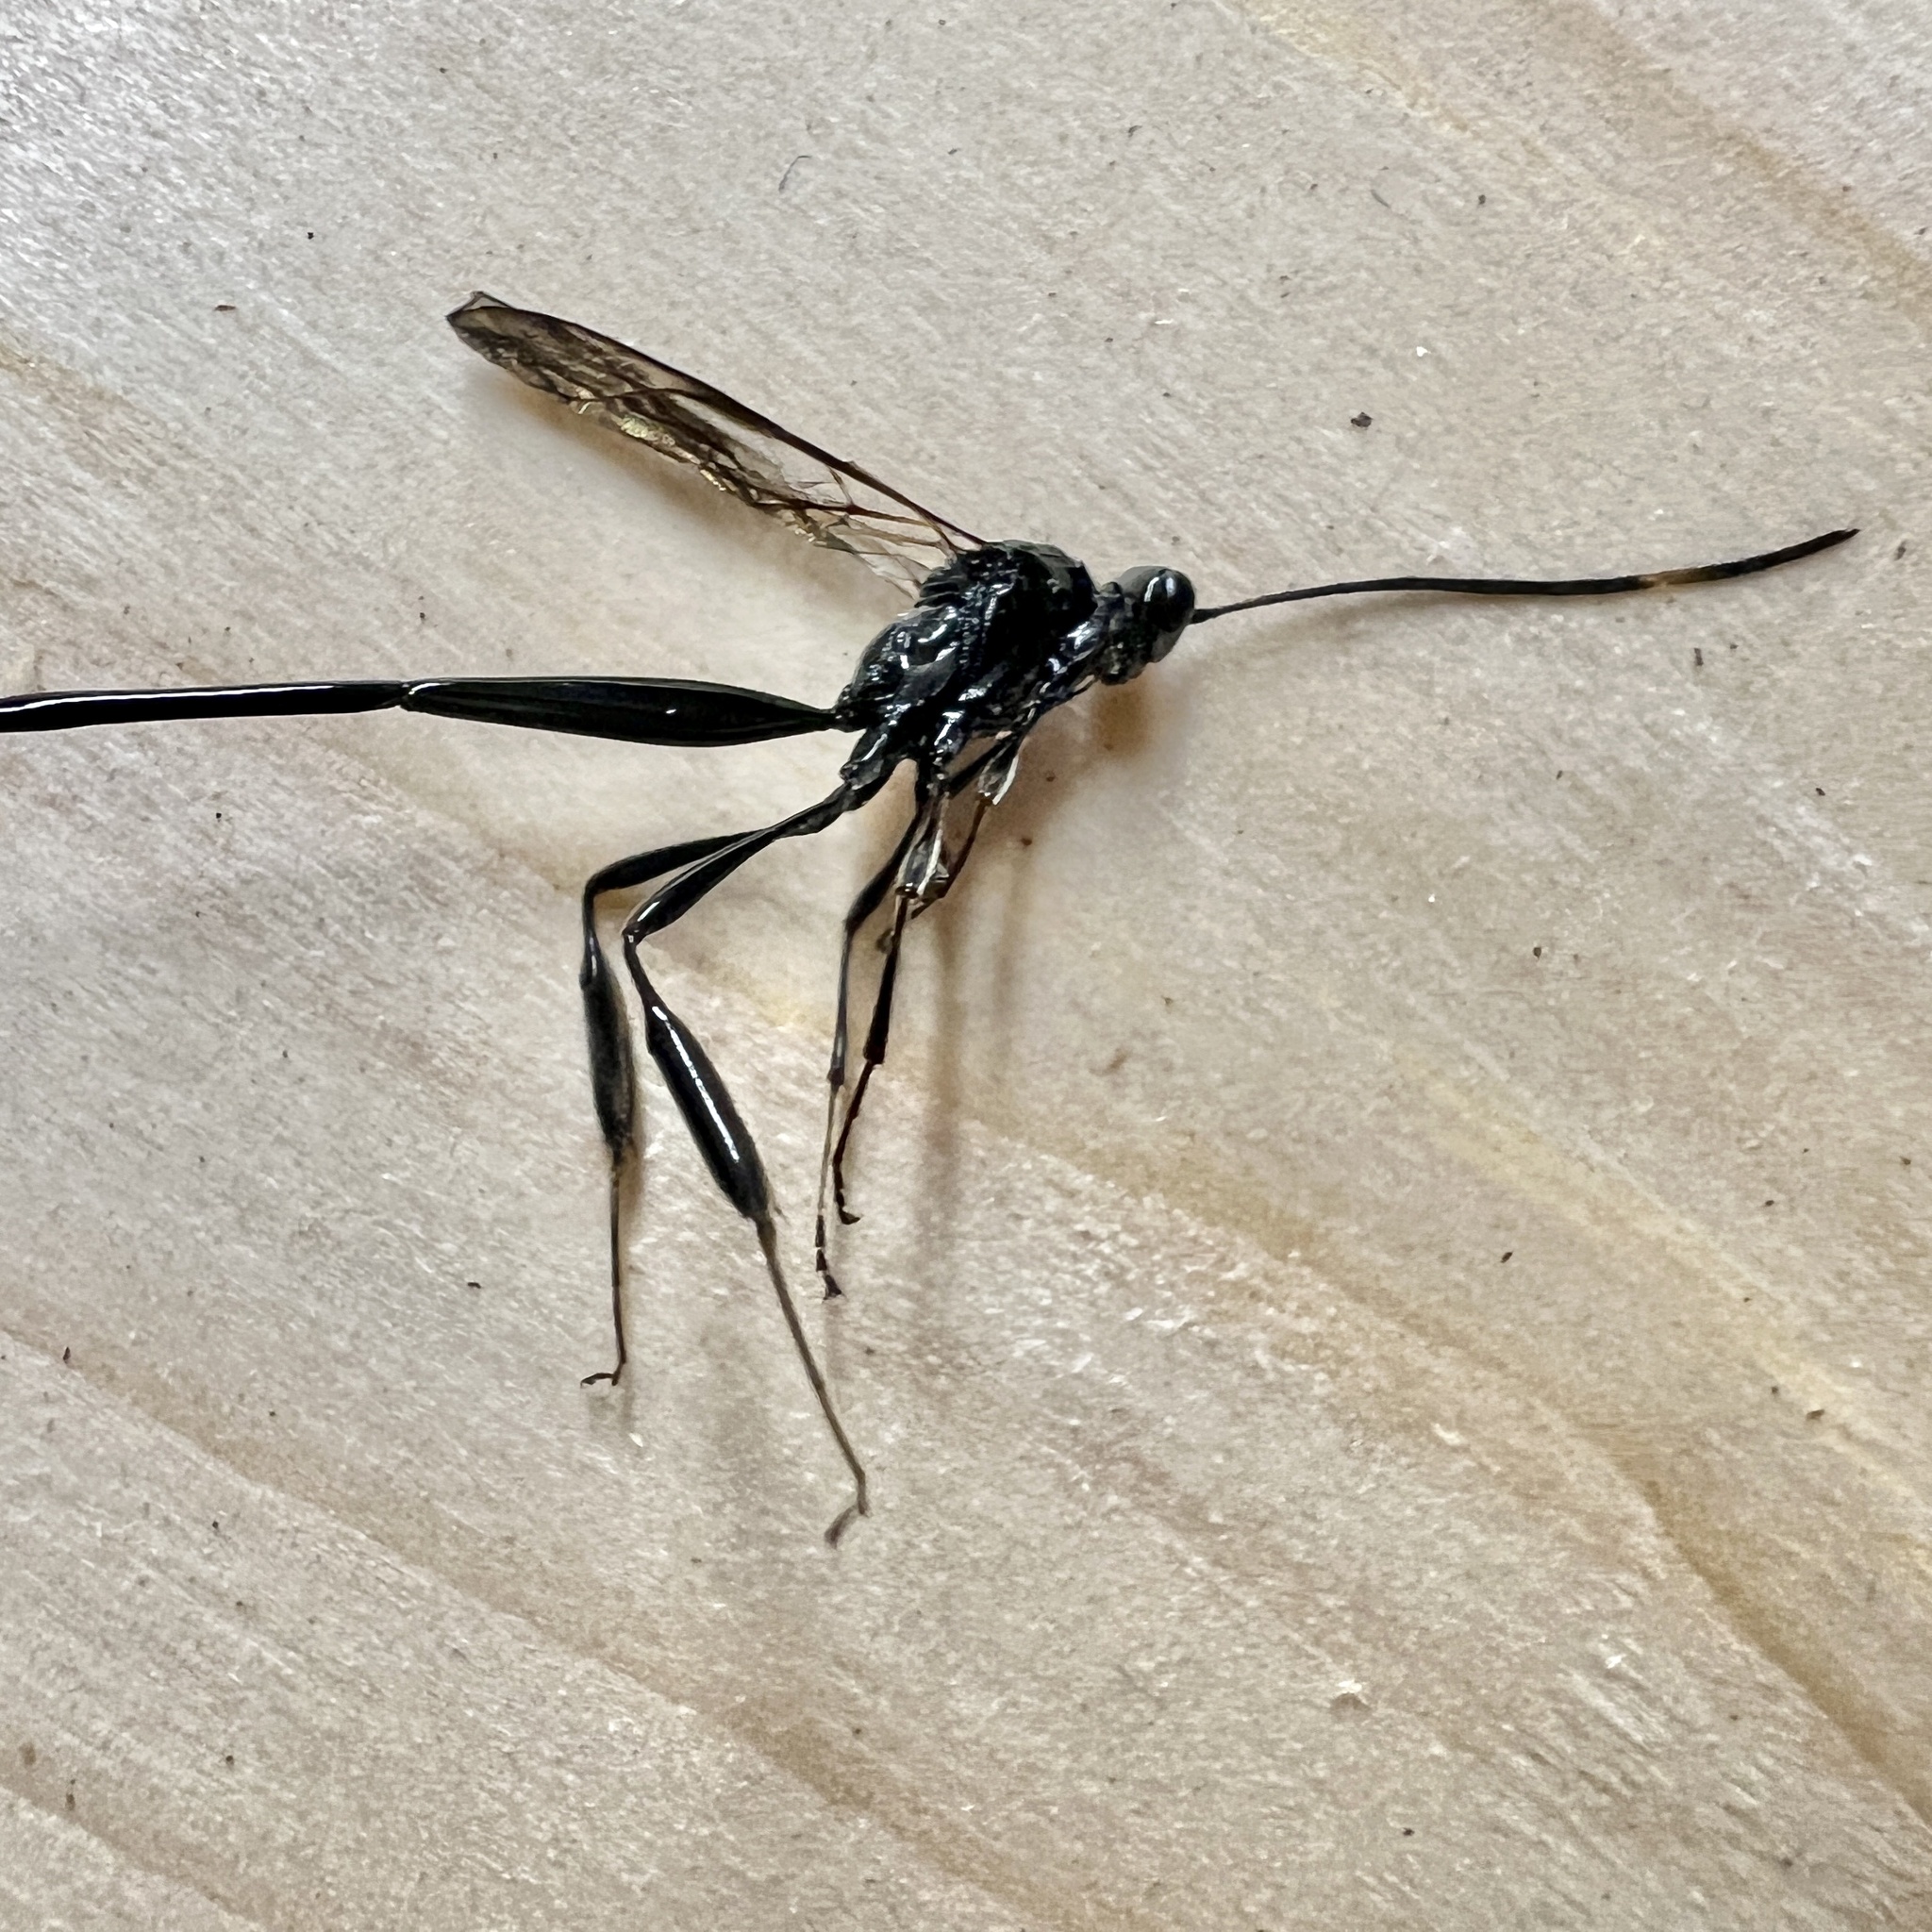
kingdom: Animalia
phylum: Arthropoda
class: Insecta
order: Hymenoptera
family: Pelecinidae
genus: Pelecinus
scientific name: Pelecinus polyturator
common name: American pelecinid wasp
